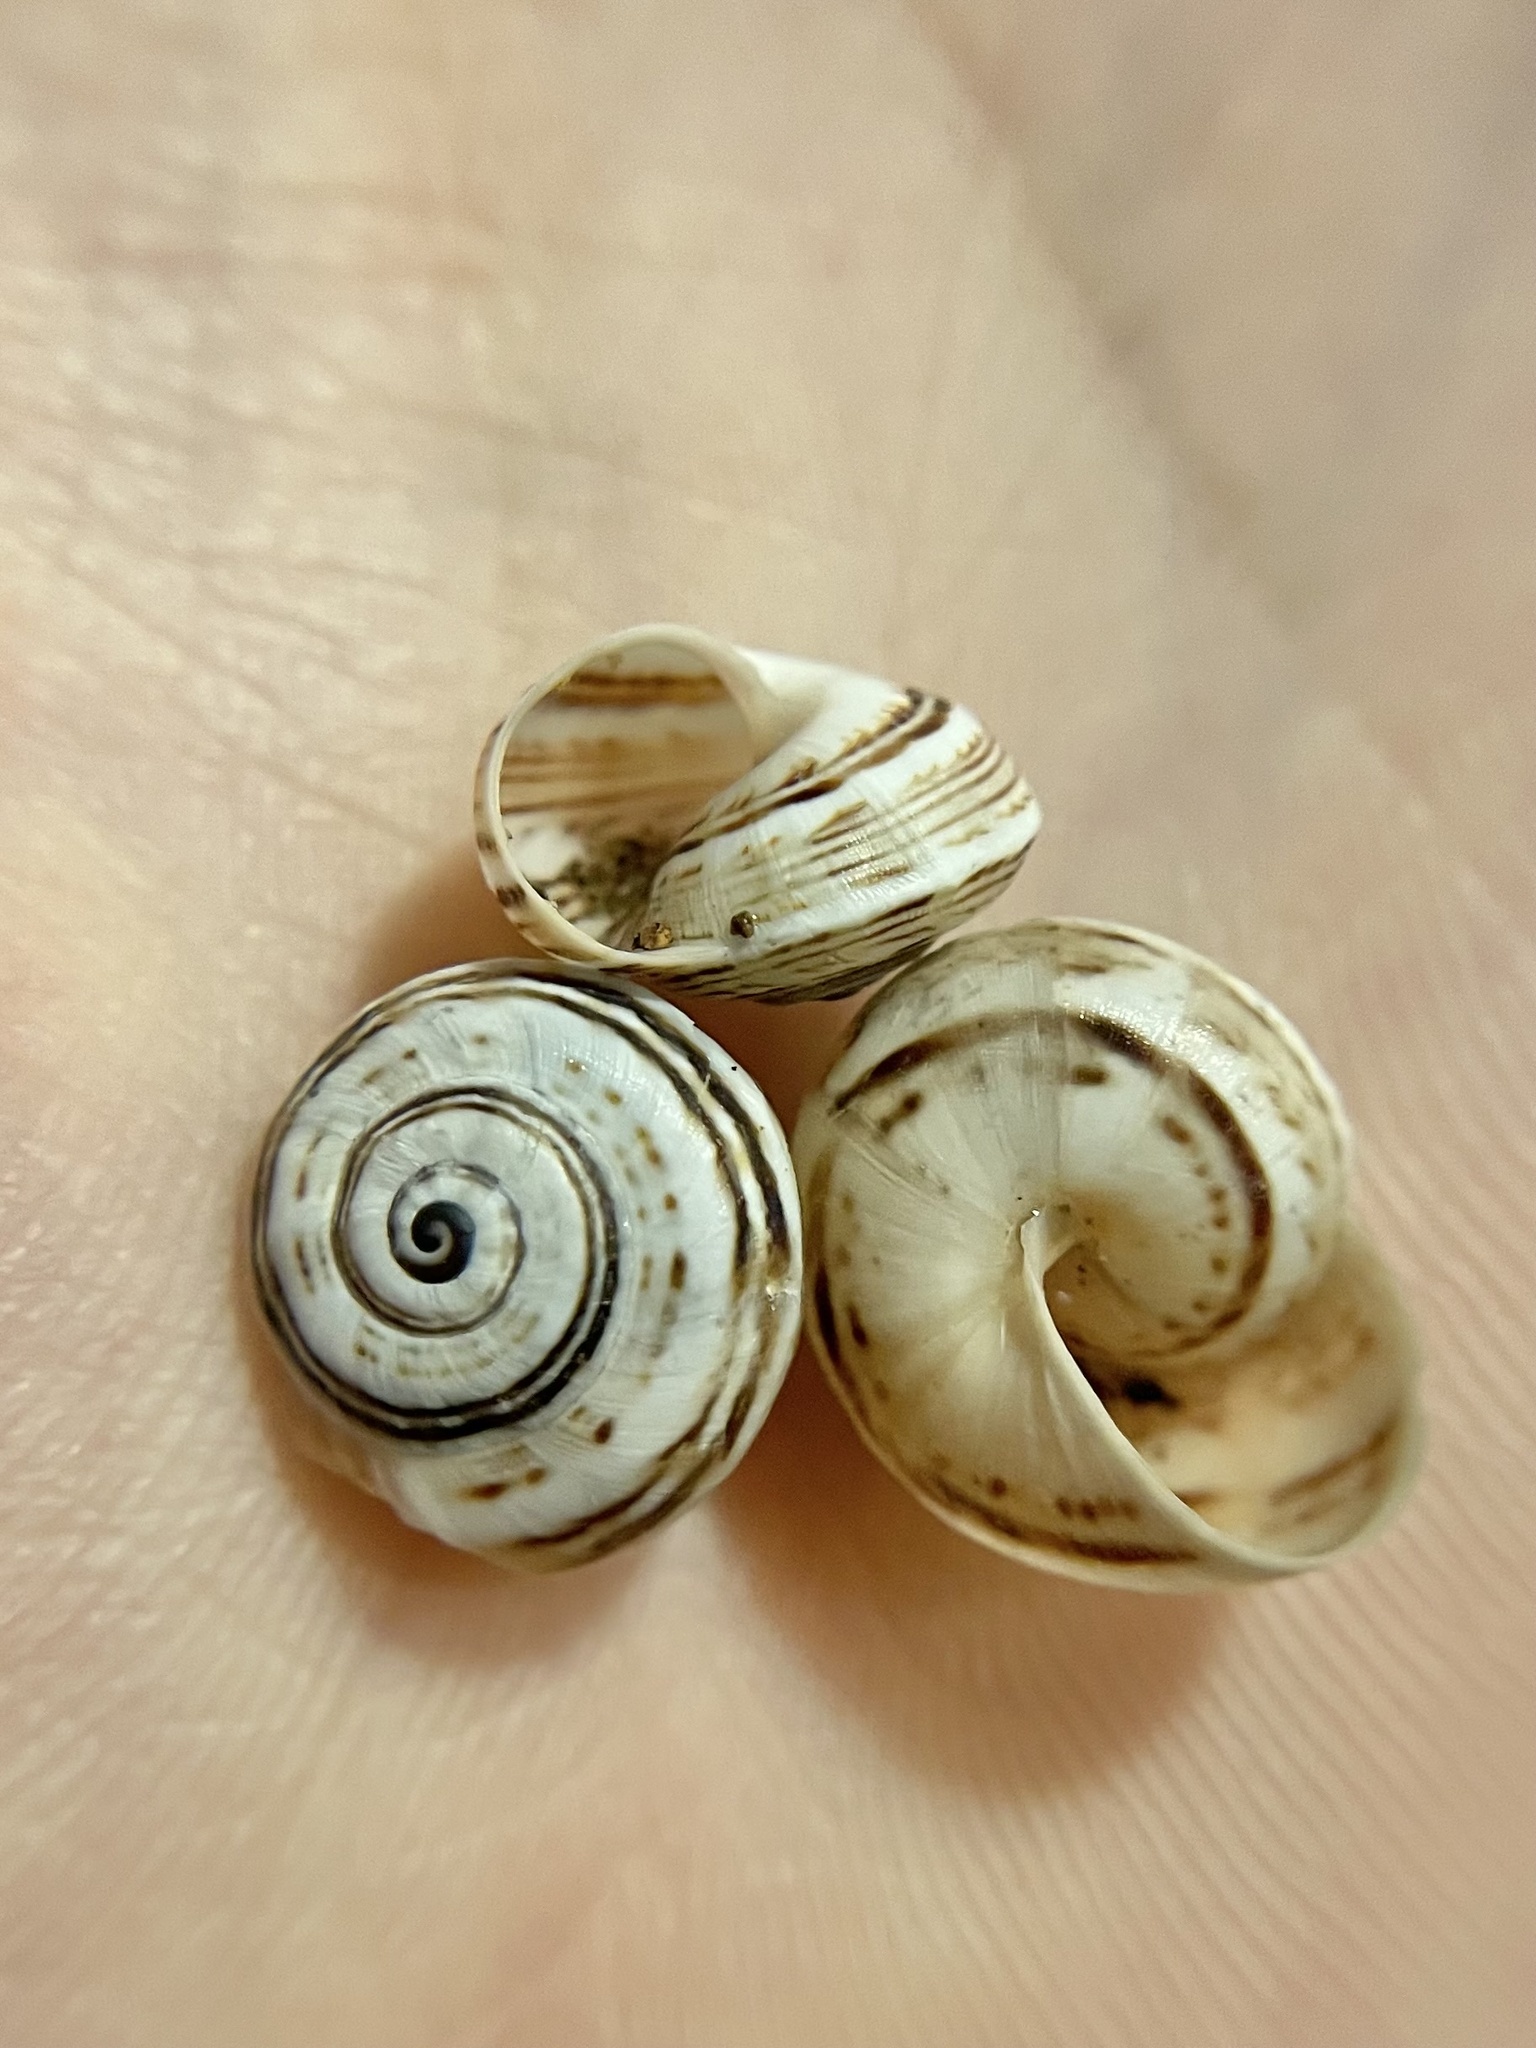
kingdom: Animalia
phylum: Mollusca
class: Gastropoda
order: Stylommatophora
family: Helicidae
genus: Theba
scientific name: Theba pisana
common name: White snail
